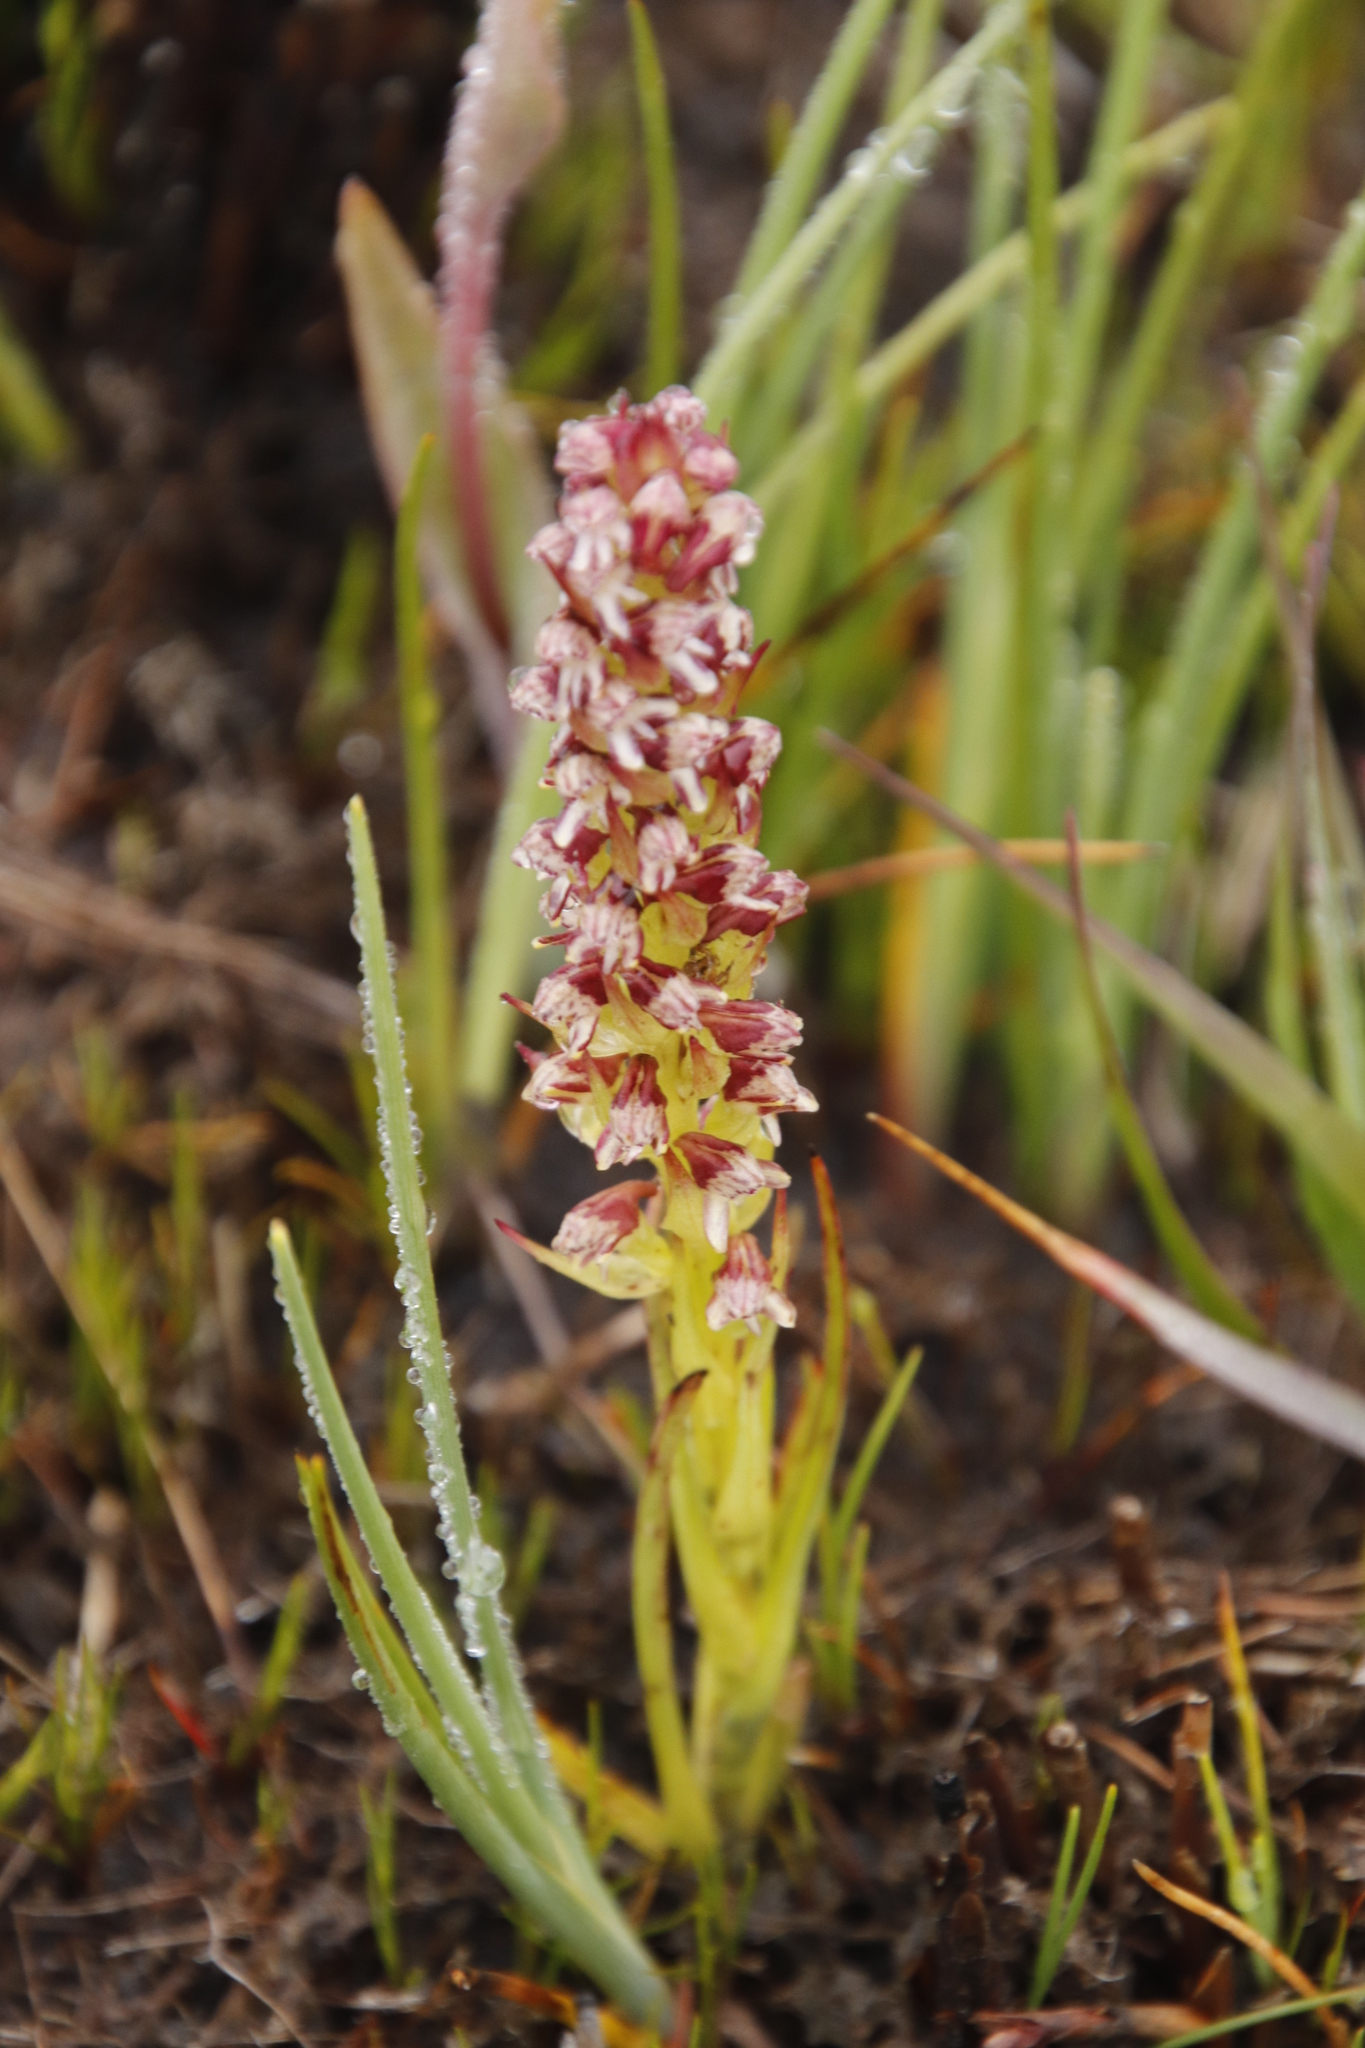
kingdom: Plantae
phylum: Tracheophyta
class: Liliopsida
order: Asparagales
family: Orchidaceae
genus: Disa
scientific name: Disa obtusa
